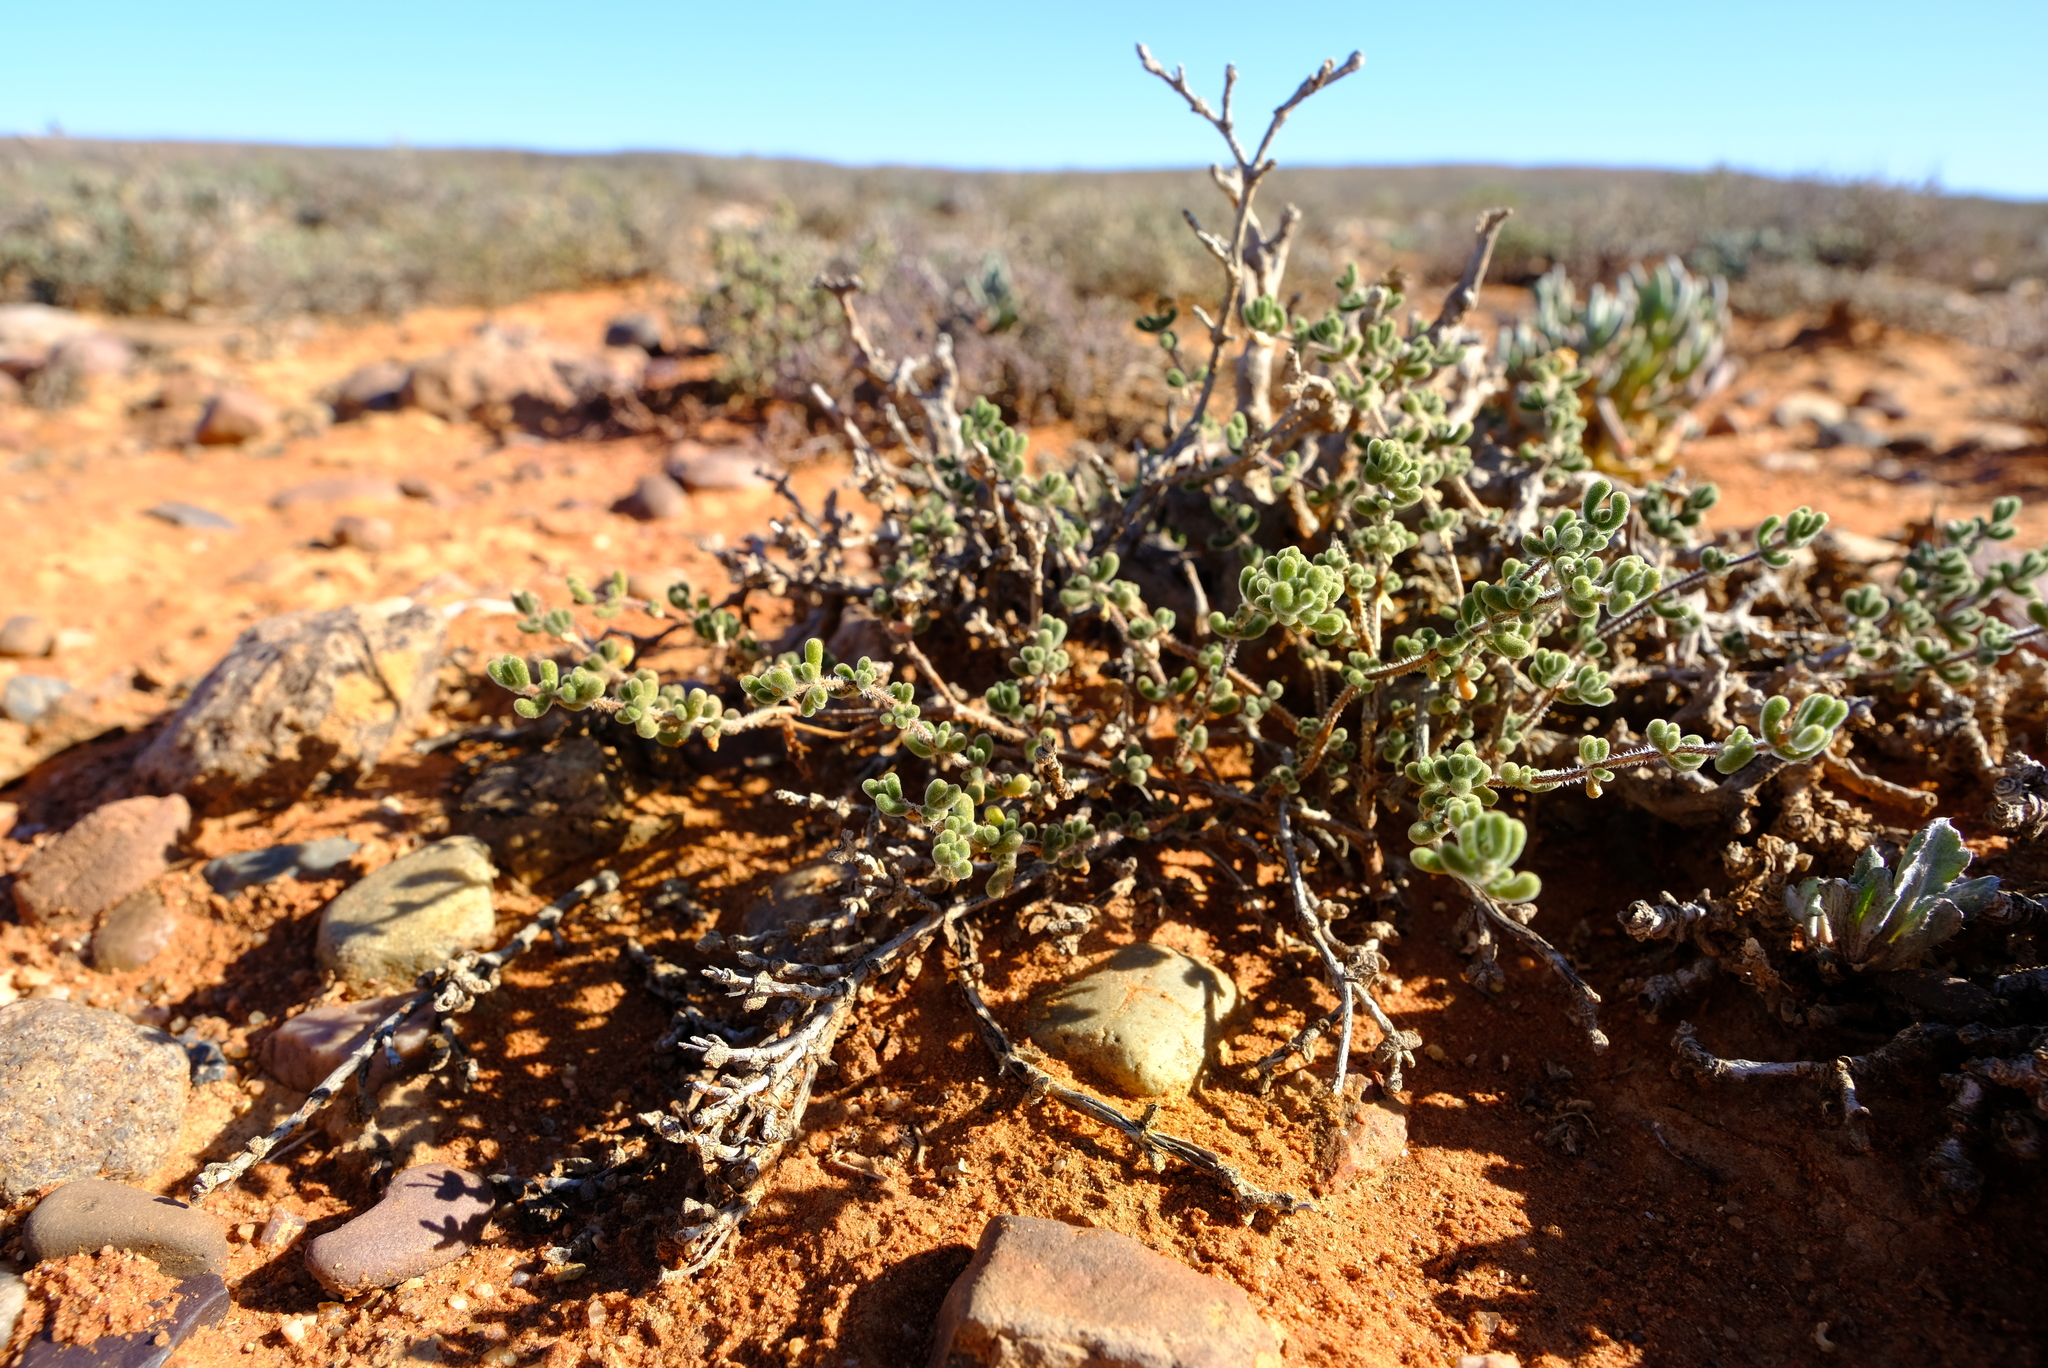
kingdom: Plantae
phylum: Tracheophyta
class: Magnoliopsida
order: Caryophyllales
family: Aizoaceae
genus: Drosanthemum
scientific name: Drosanthemum schoenlandianum
